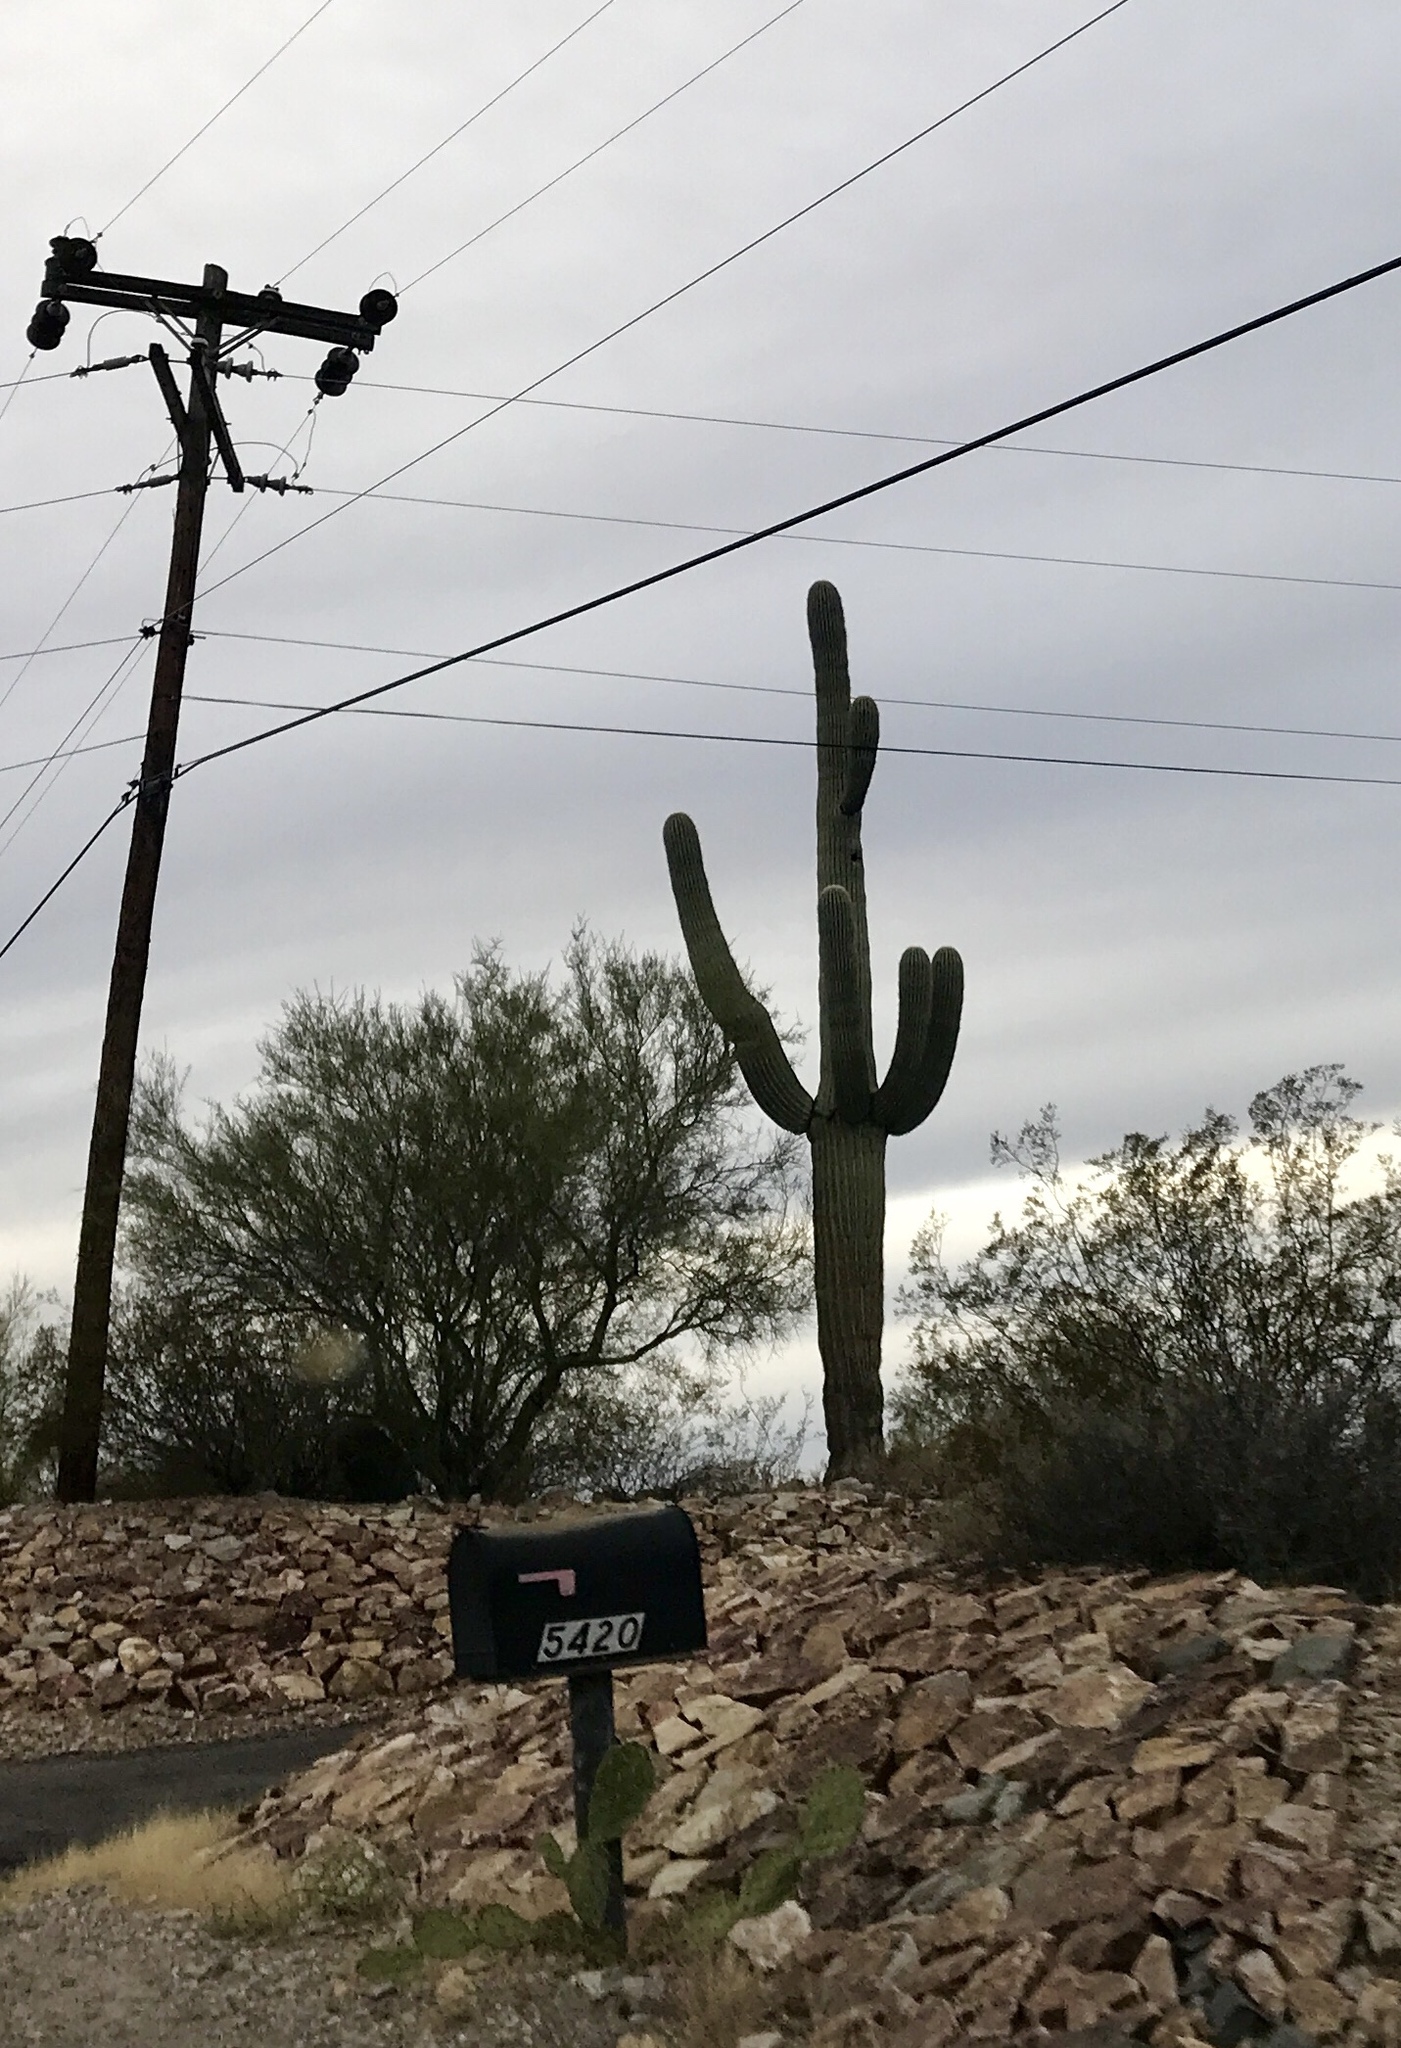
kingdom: Plantae
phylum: Tracheophyta
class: Magnoliopsida
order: Caryophyllales
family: Cactaceae
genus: Carnegiea
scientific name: Carnegiea gigantea
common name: Saguaro
